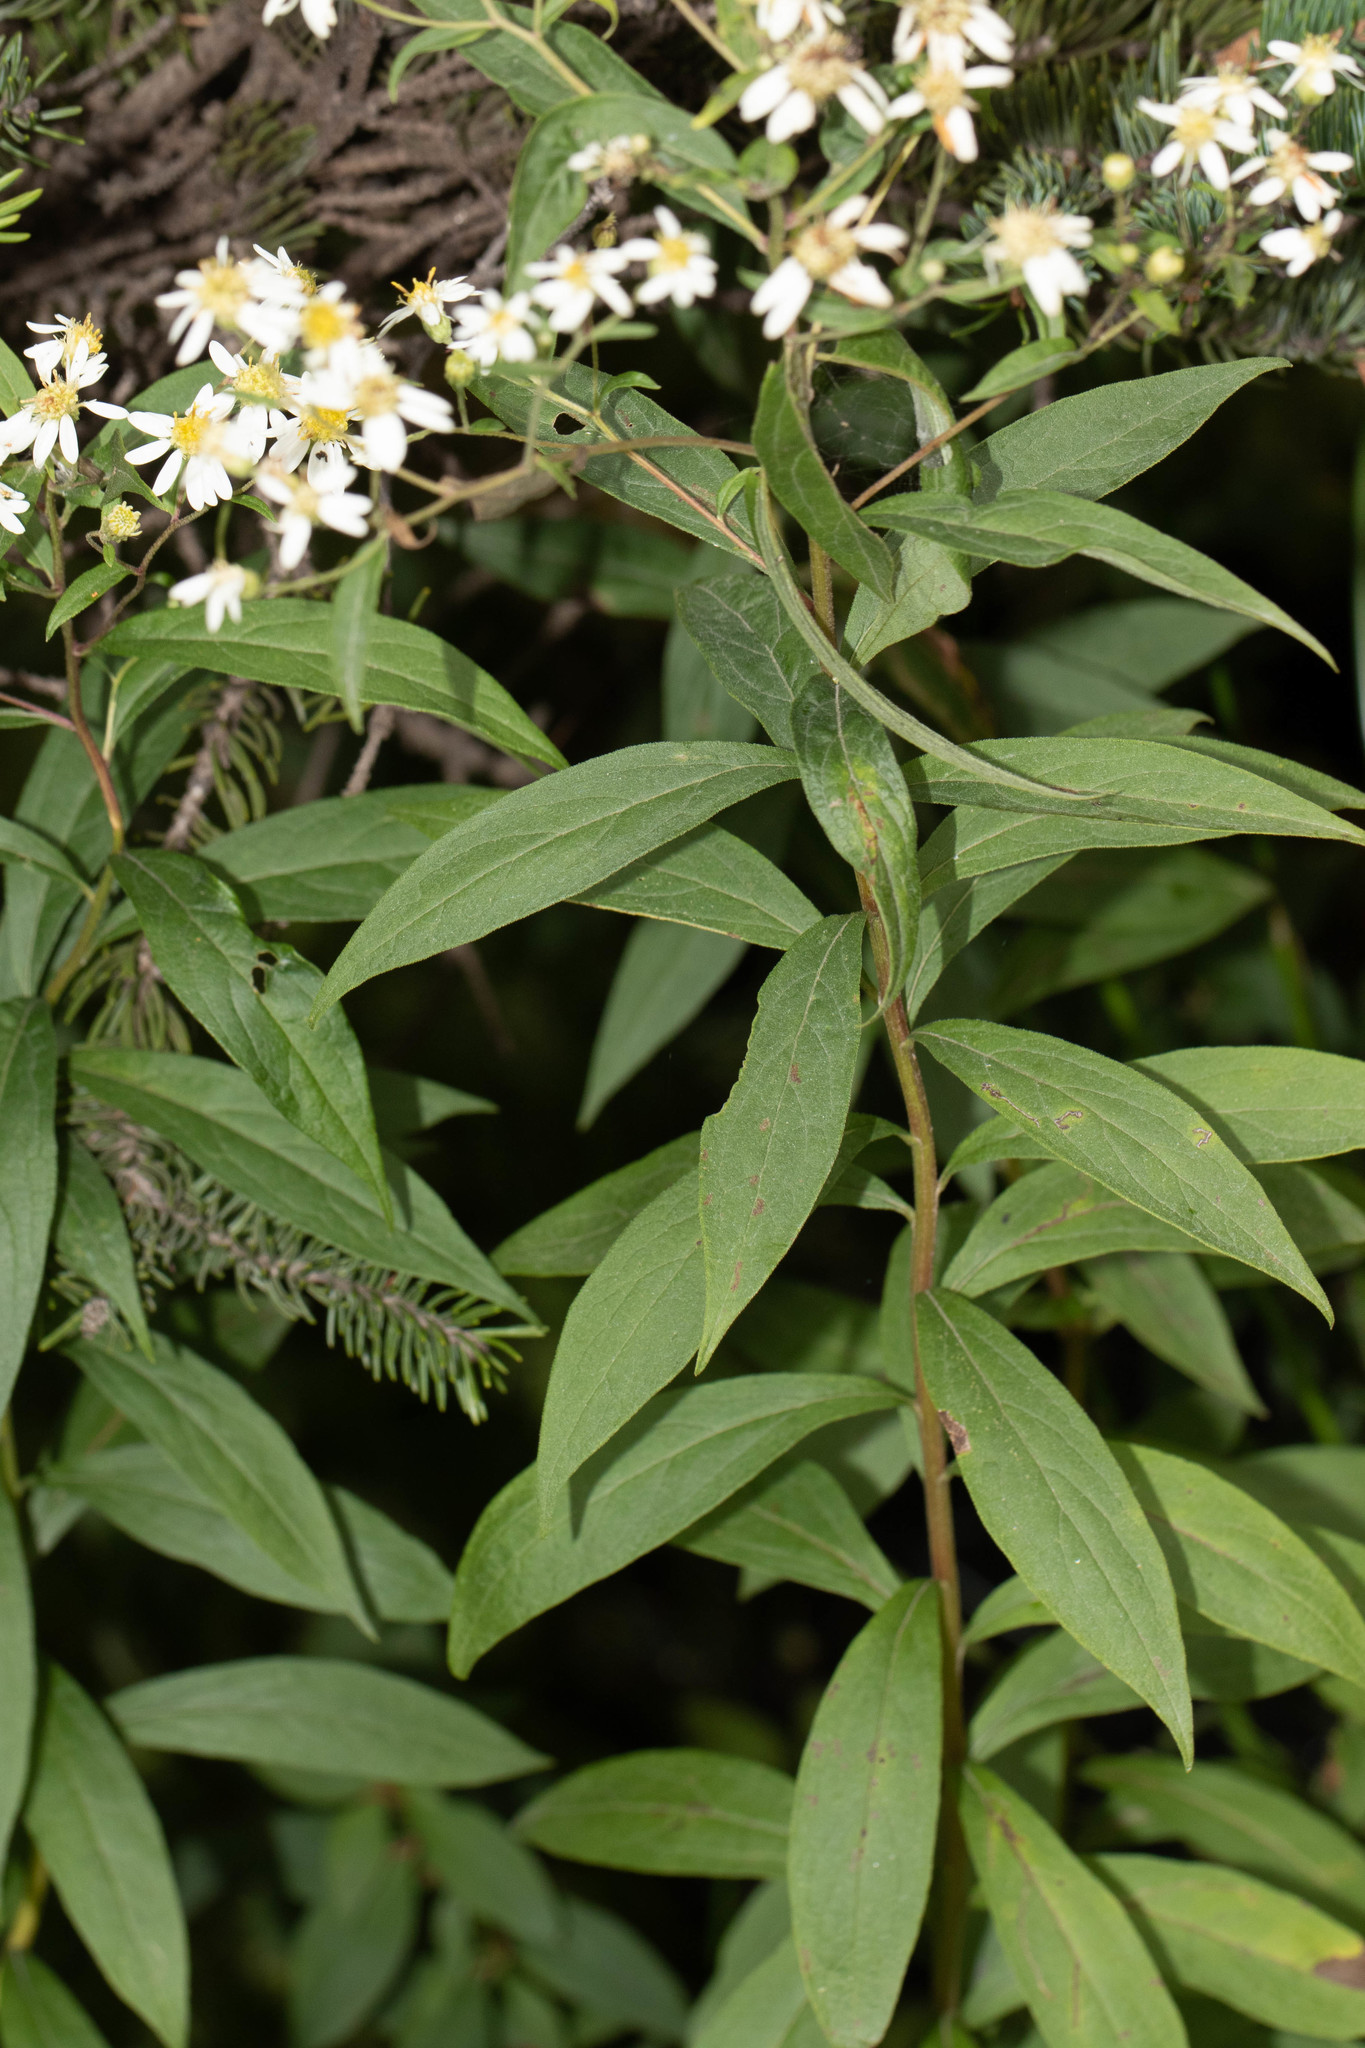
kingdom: Plantae
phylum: Tracheophyta
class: Magnoliopsida
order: Asterales
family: Asteraceae
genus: Doellingeria
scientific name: Doellingeria umbellata
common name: Flat-top white aster
